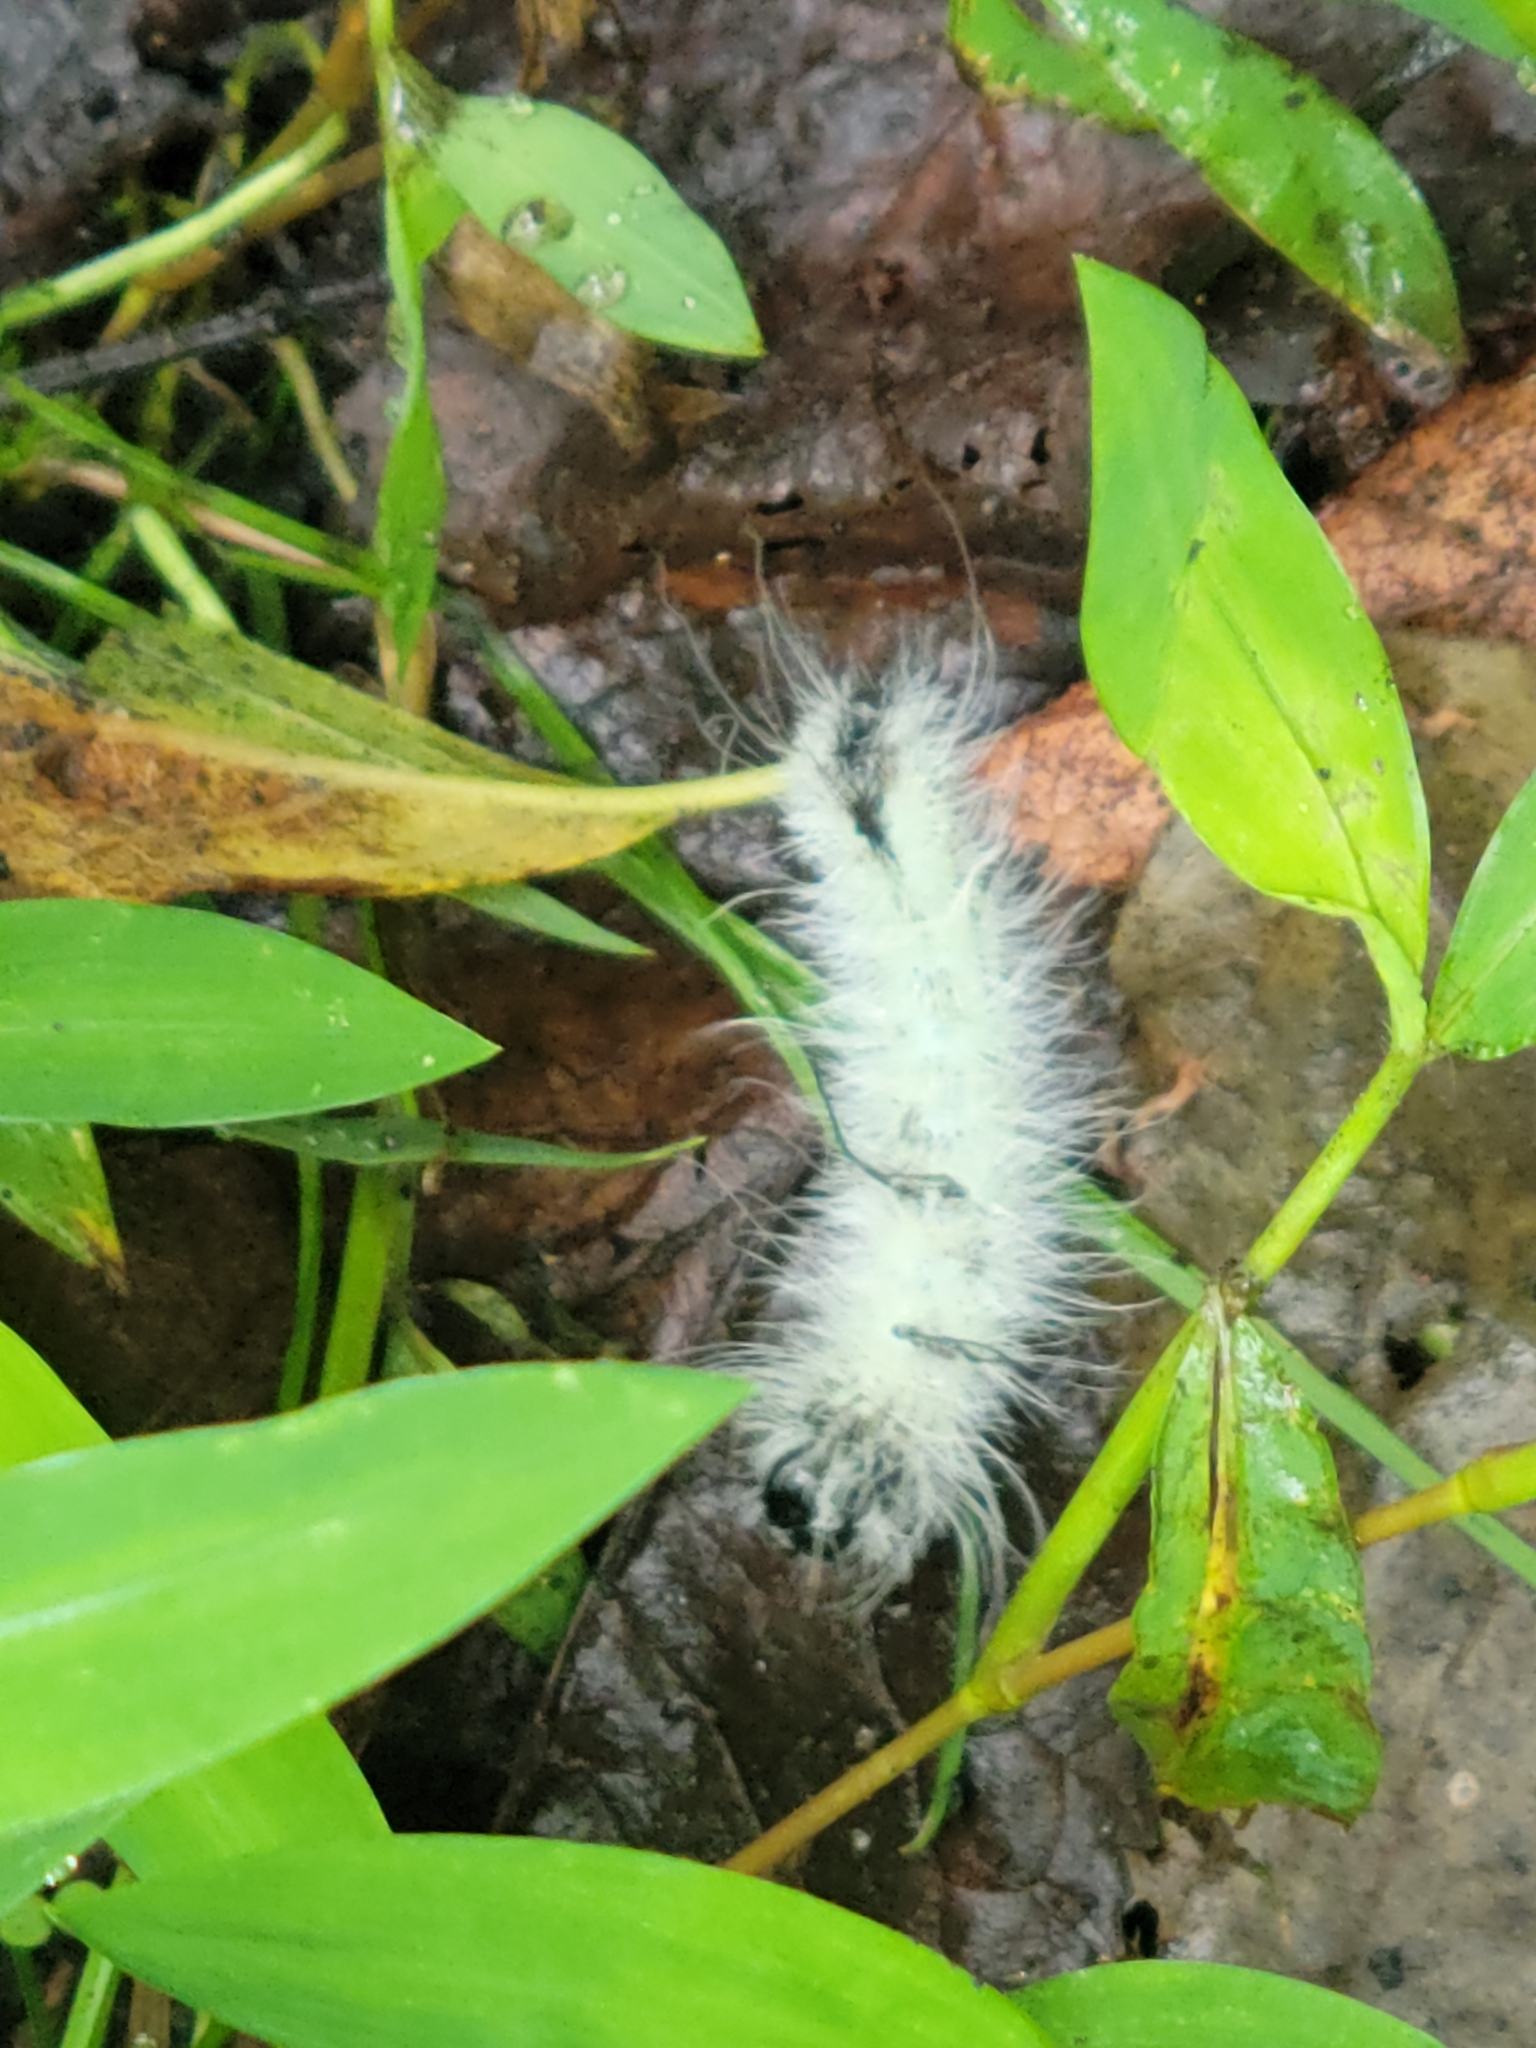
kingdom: Animalia
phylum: Arthropoda
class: Insecta
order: Lepidoptera
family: Noctuidae
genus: Acronicta
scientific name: Acronicta americana
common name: American dagger
